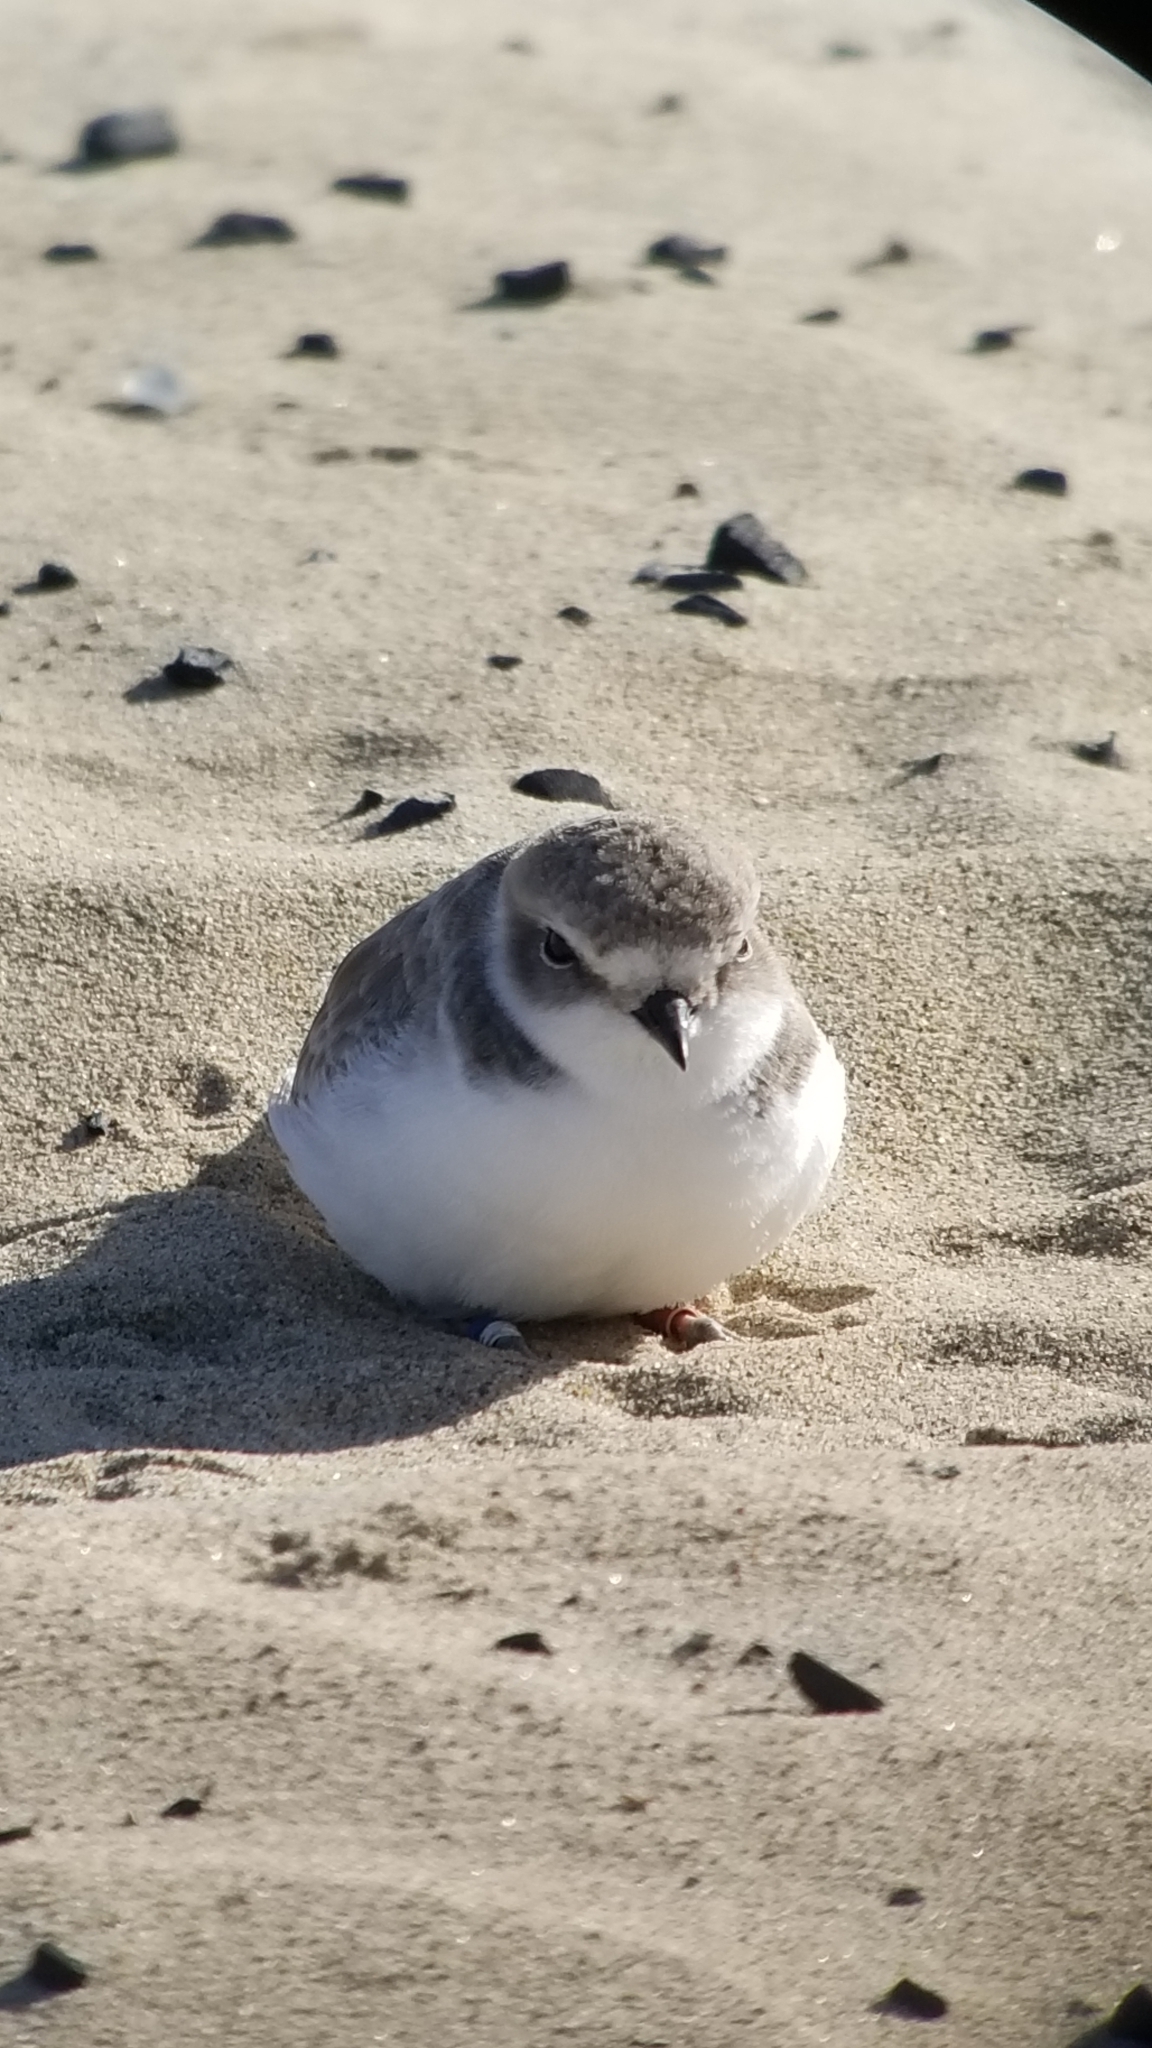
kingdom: Animalia
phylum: Chordata
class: Aves
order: Charadriiformes
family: Charadriidae
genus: Anarhynchus
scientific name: Anarhynchus
